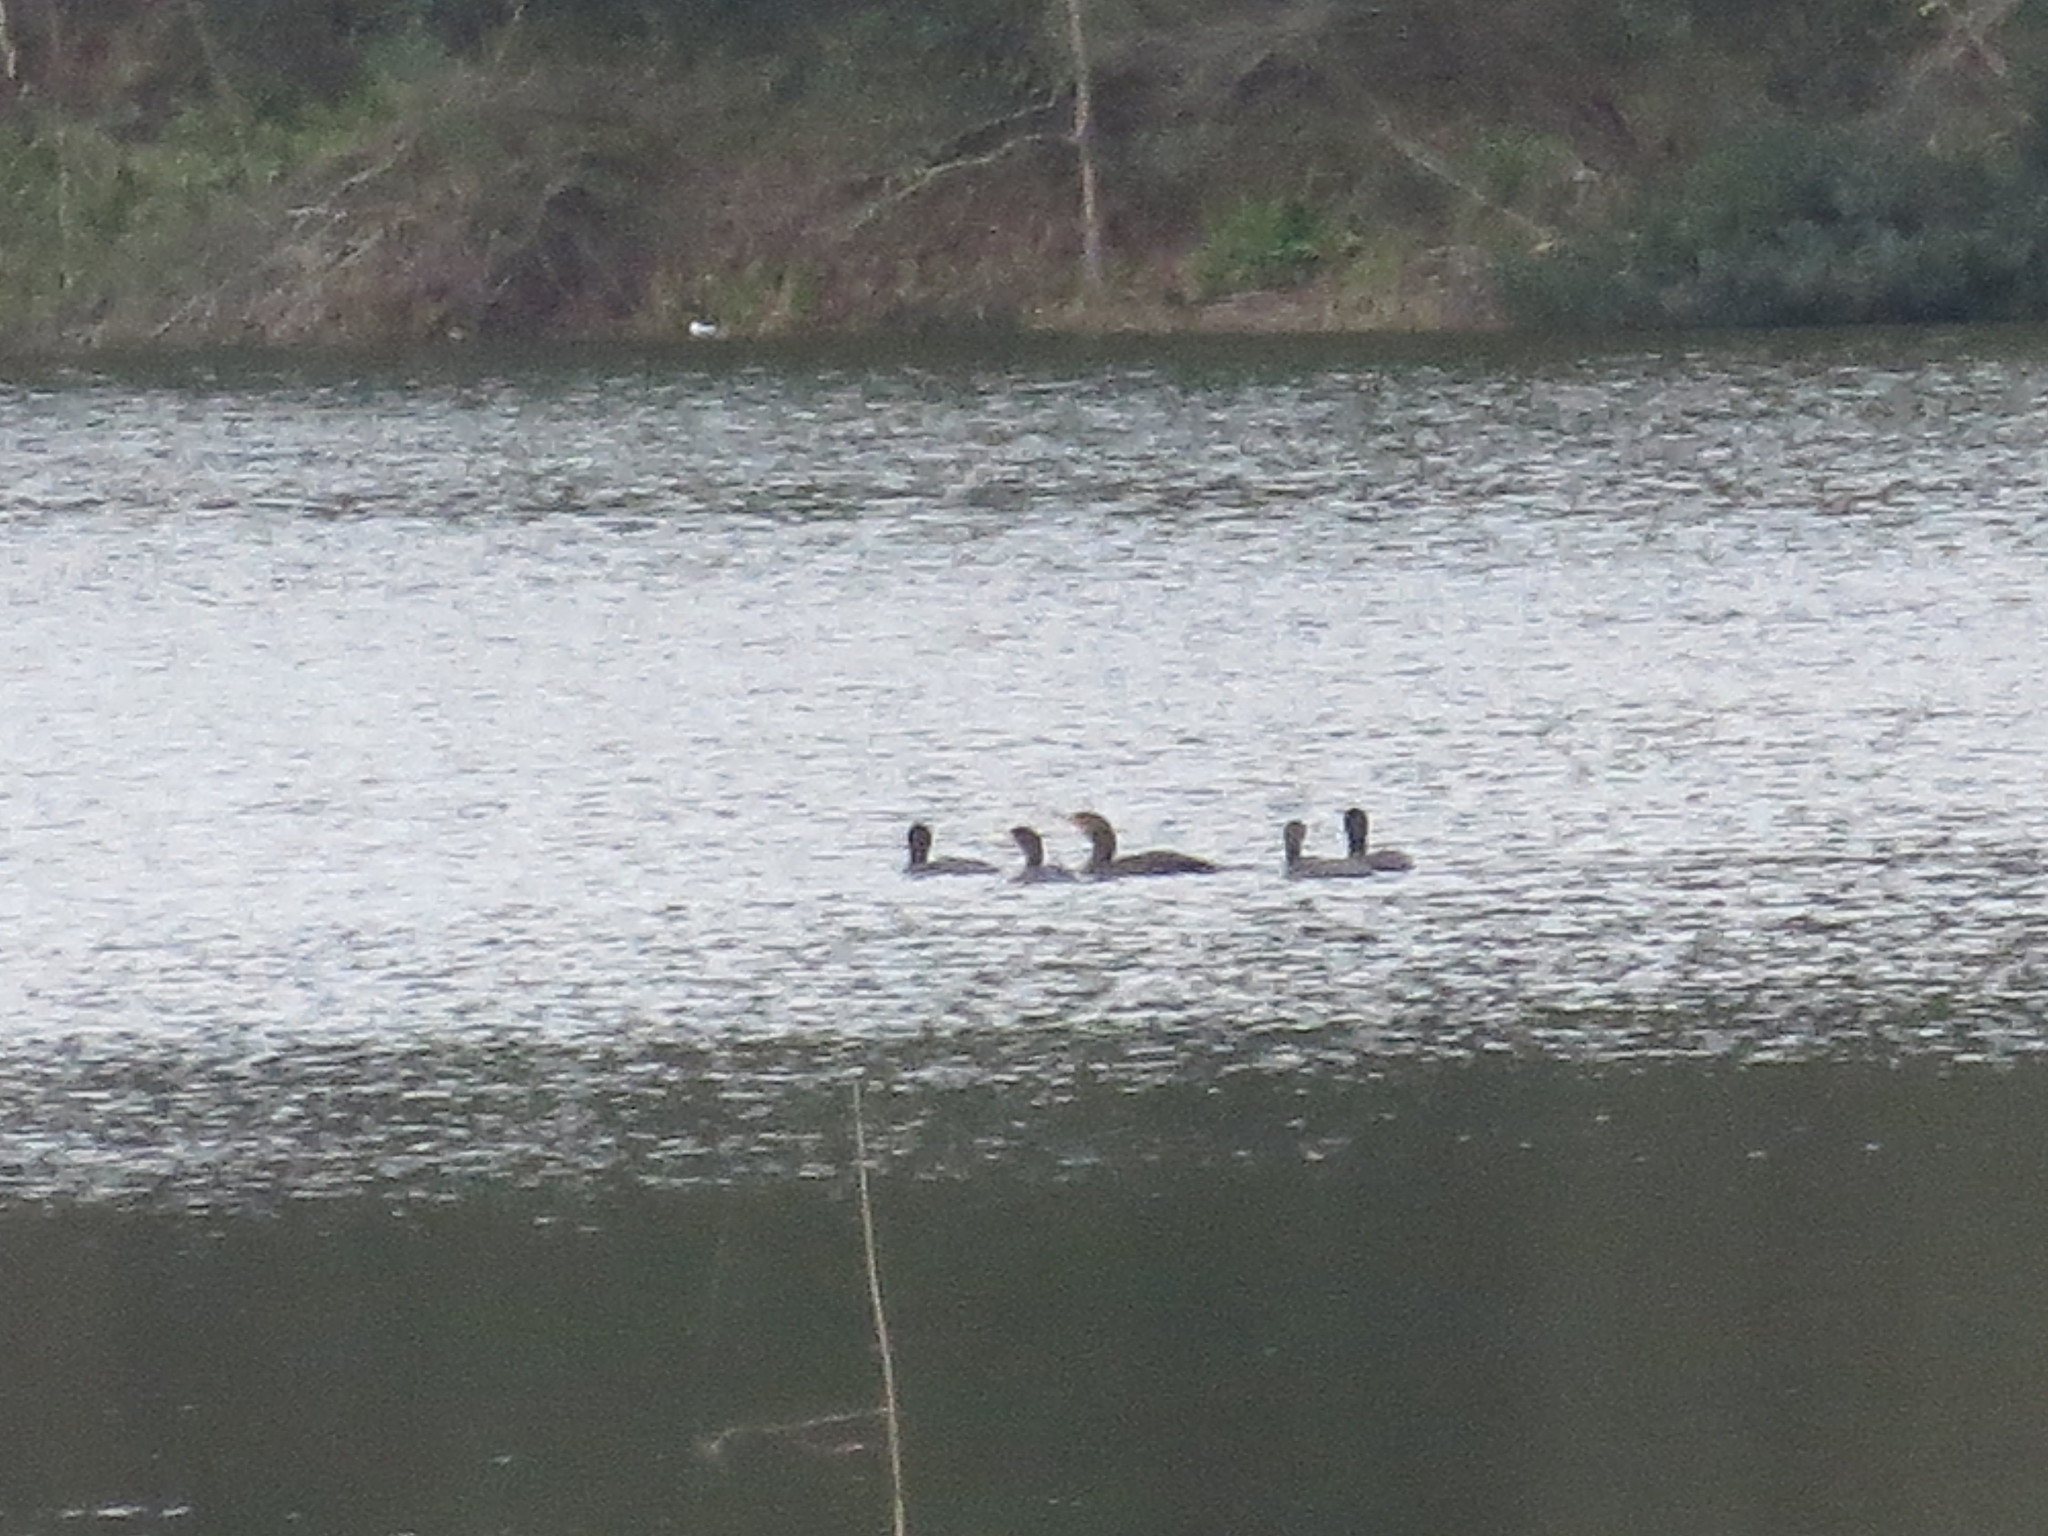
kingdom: Animalia
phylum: Chordata
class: Aves
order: Suliformes
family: Phalacrocoracidae
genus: Phalacrocorax
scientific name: Phalacrocorax auritus
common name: Double-crested cormorant
